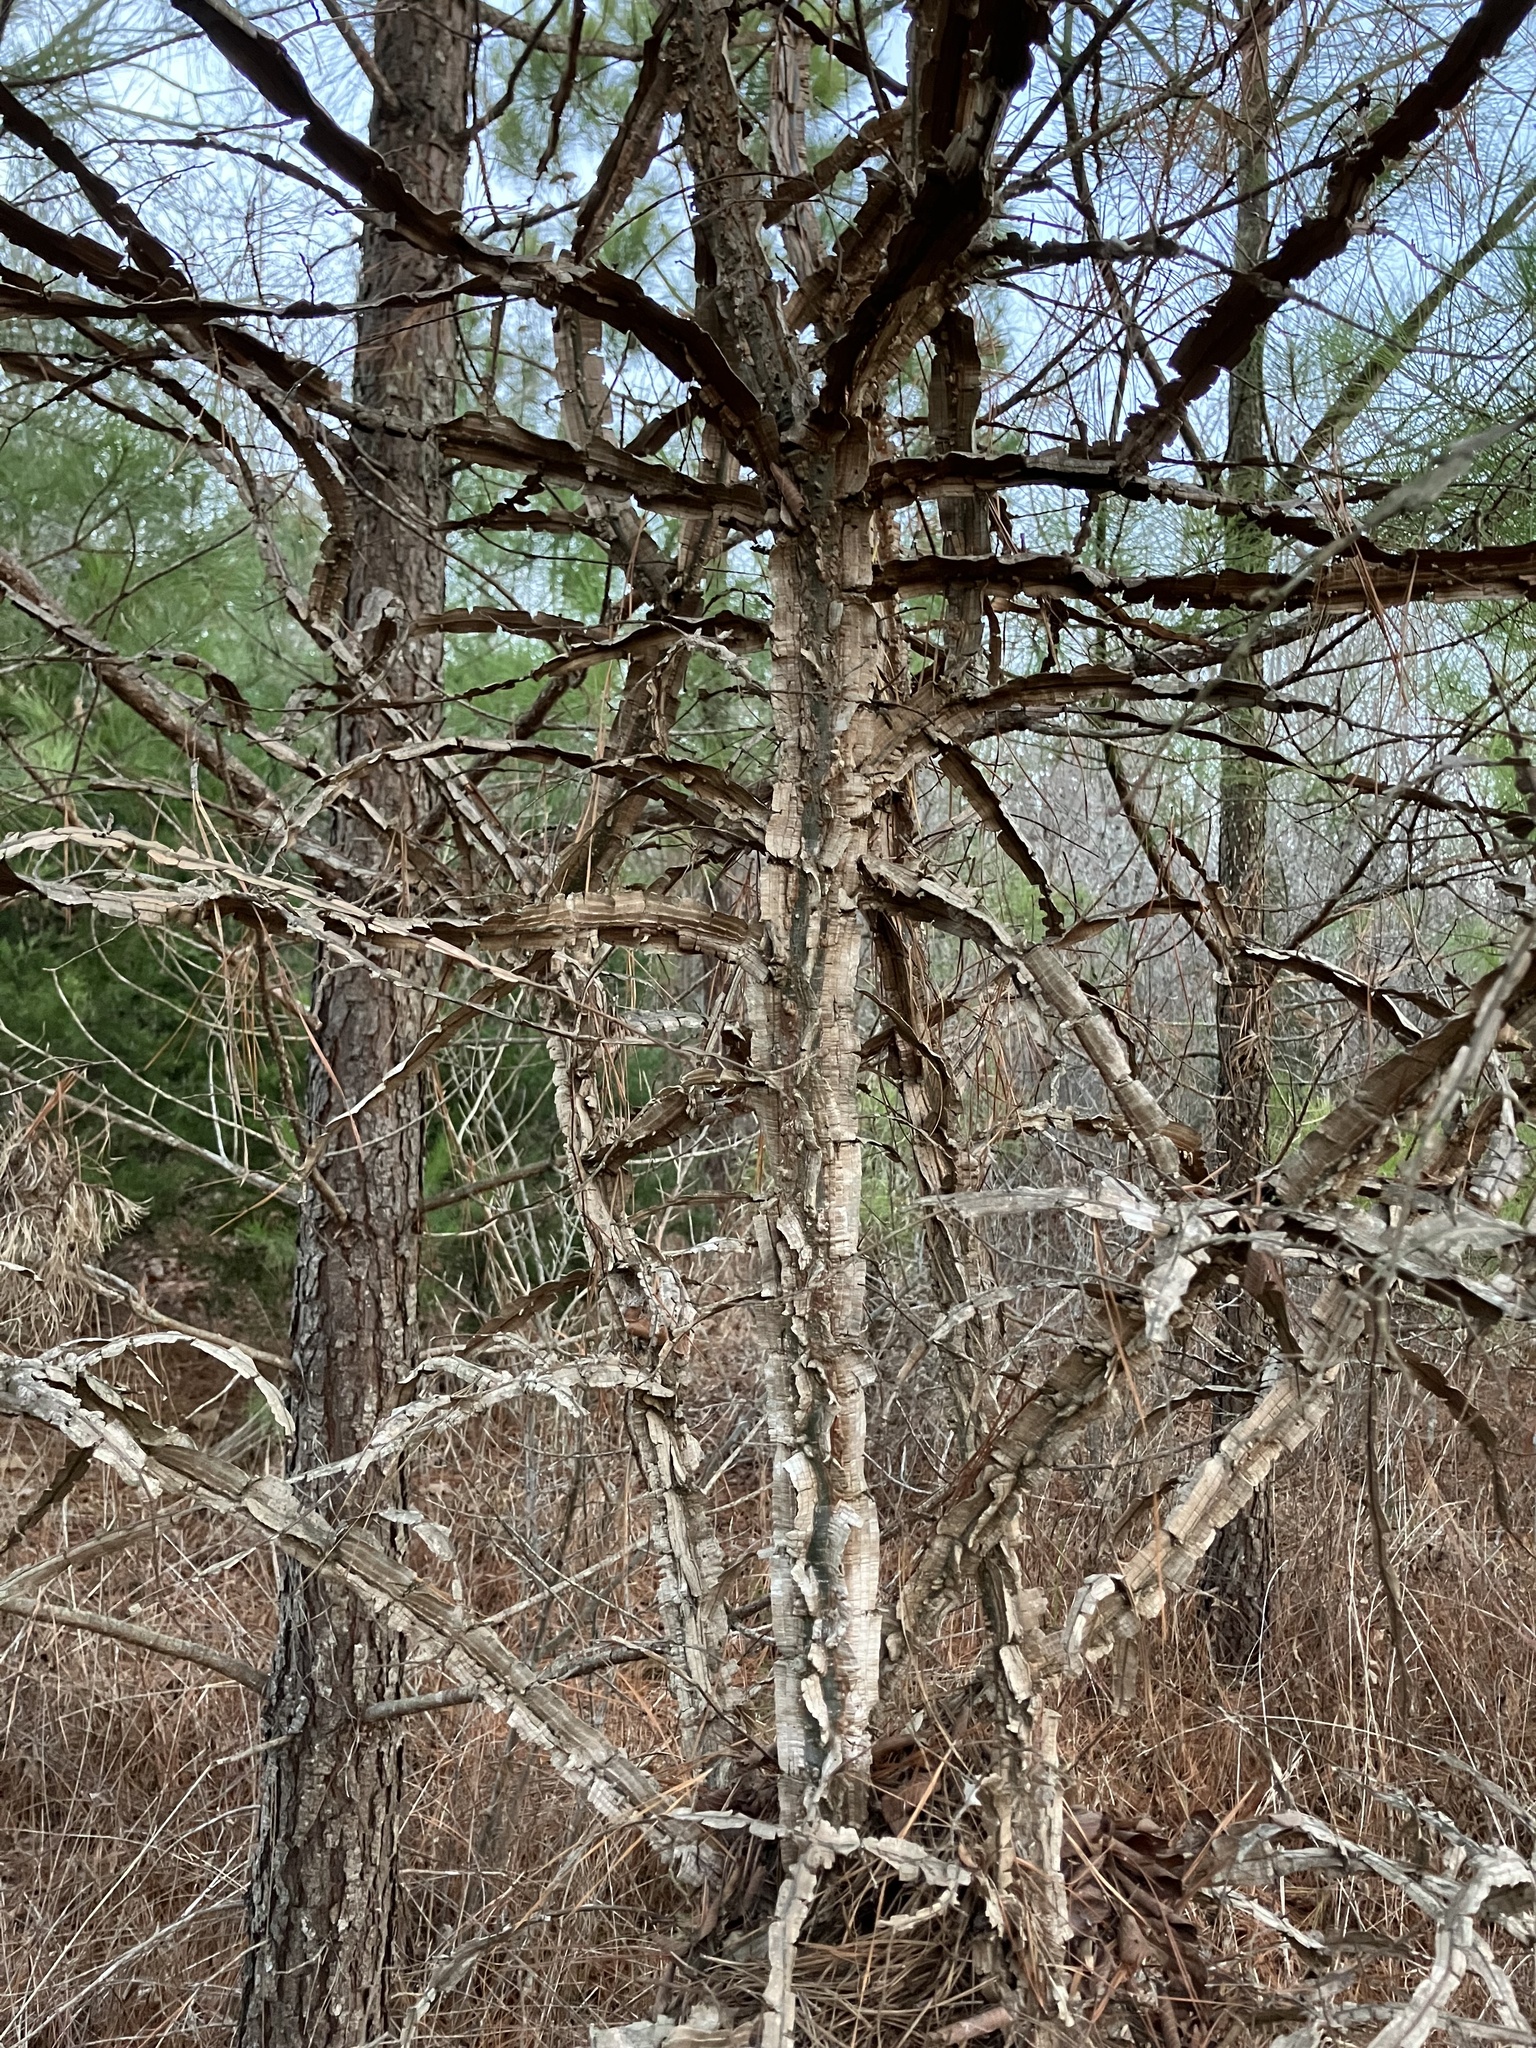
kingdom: Plantae
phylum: Tracheophyta
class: Magnoliopsida
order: Rosales
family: Ulmaceae
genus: Ulmus
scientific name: Ulmus alata
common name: Winged elm
